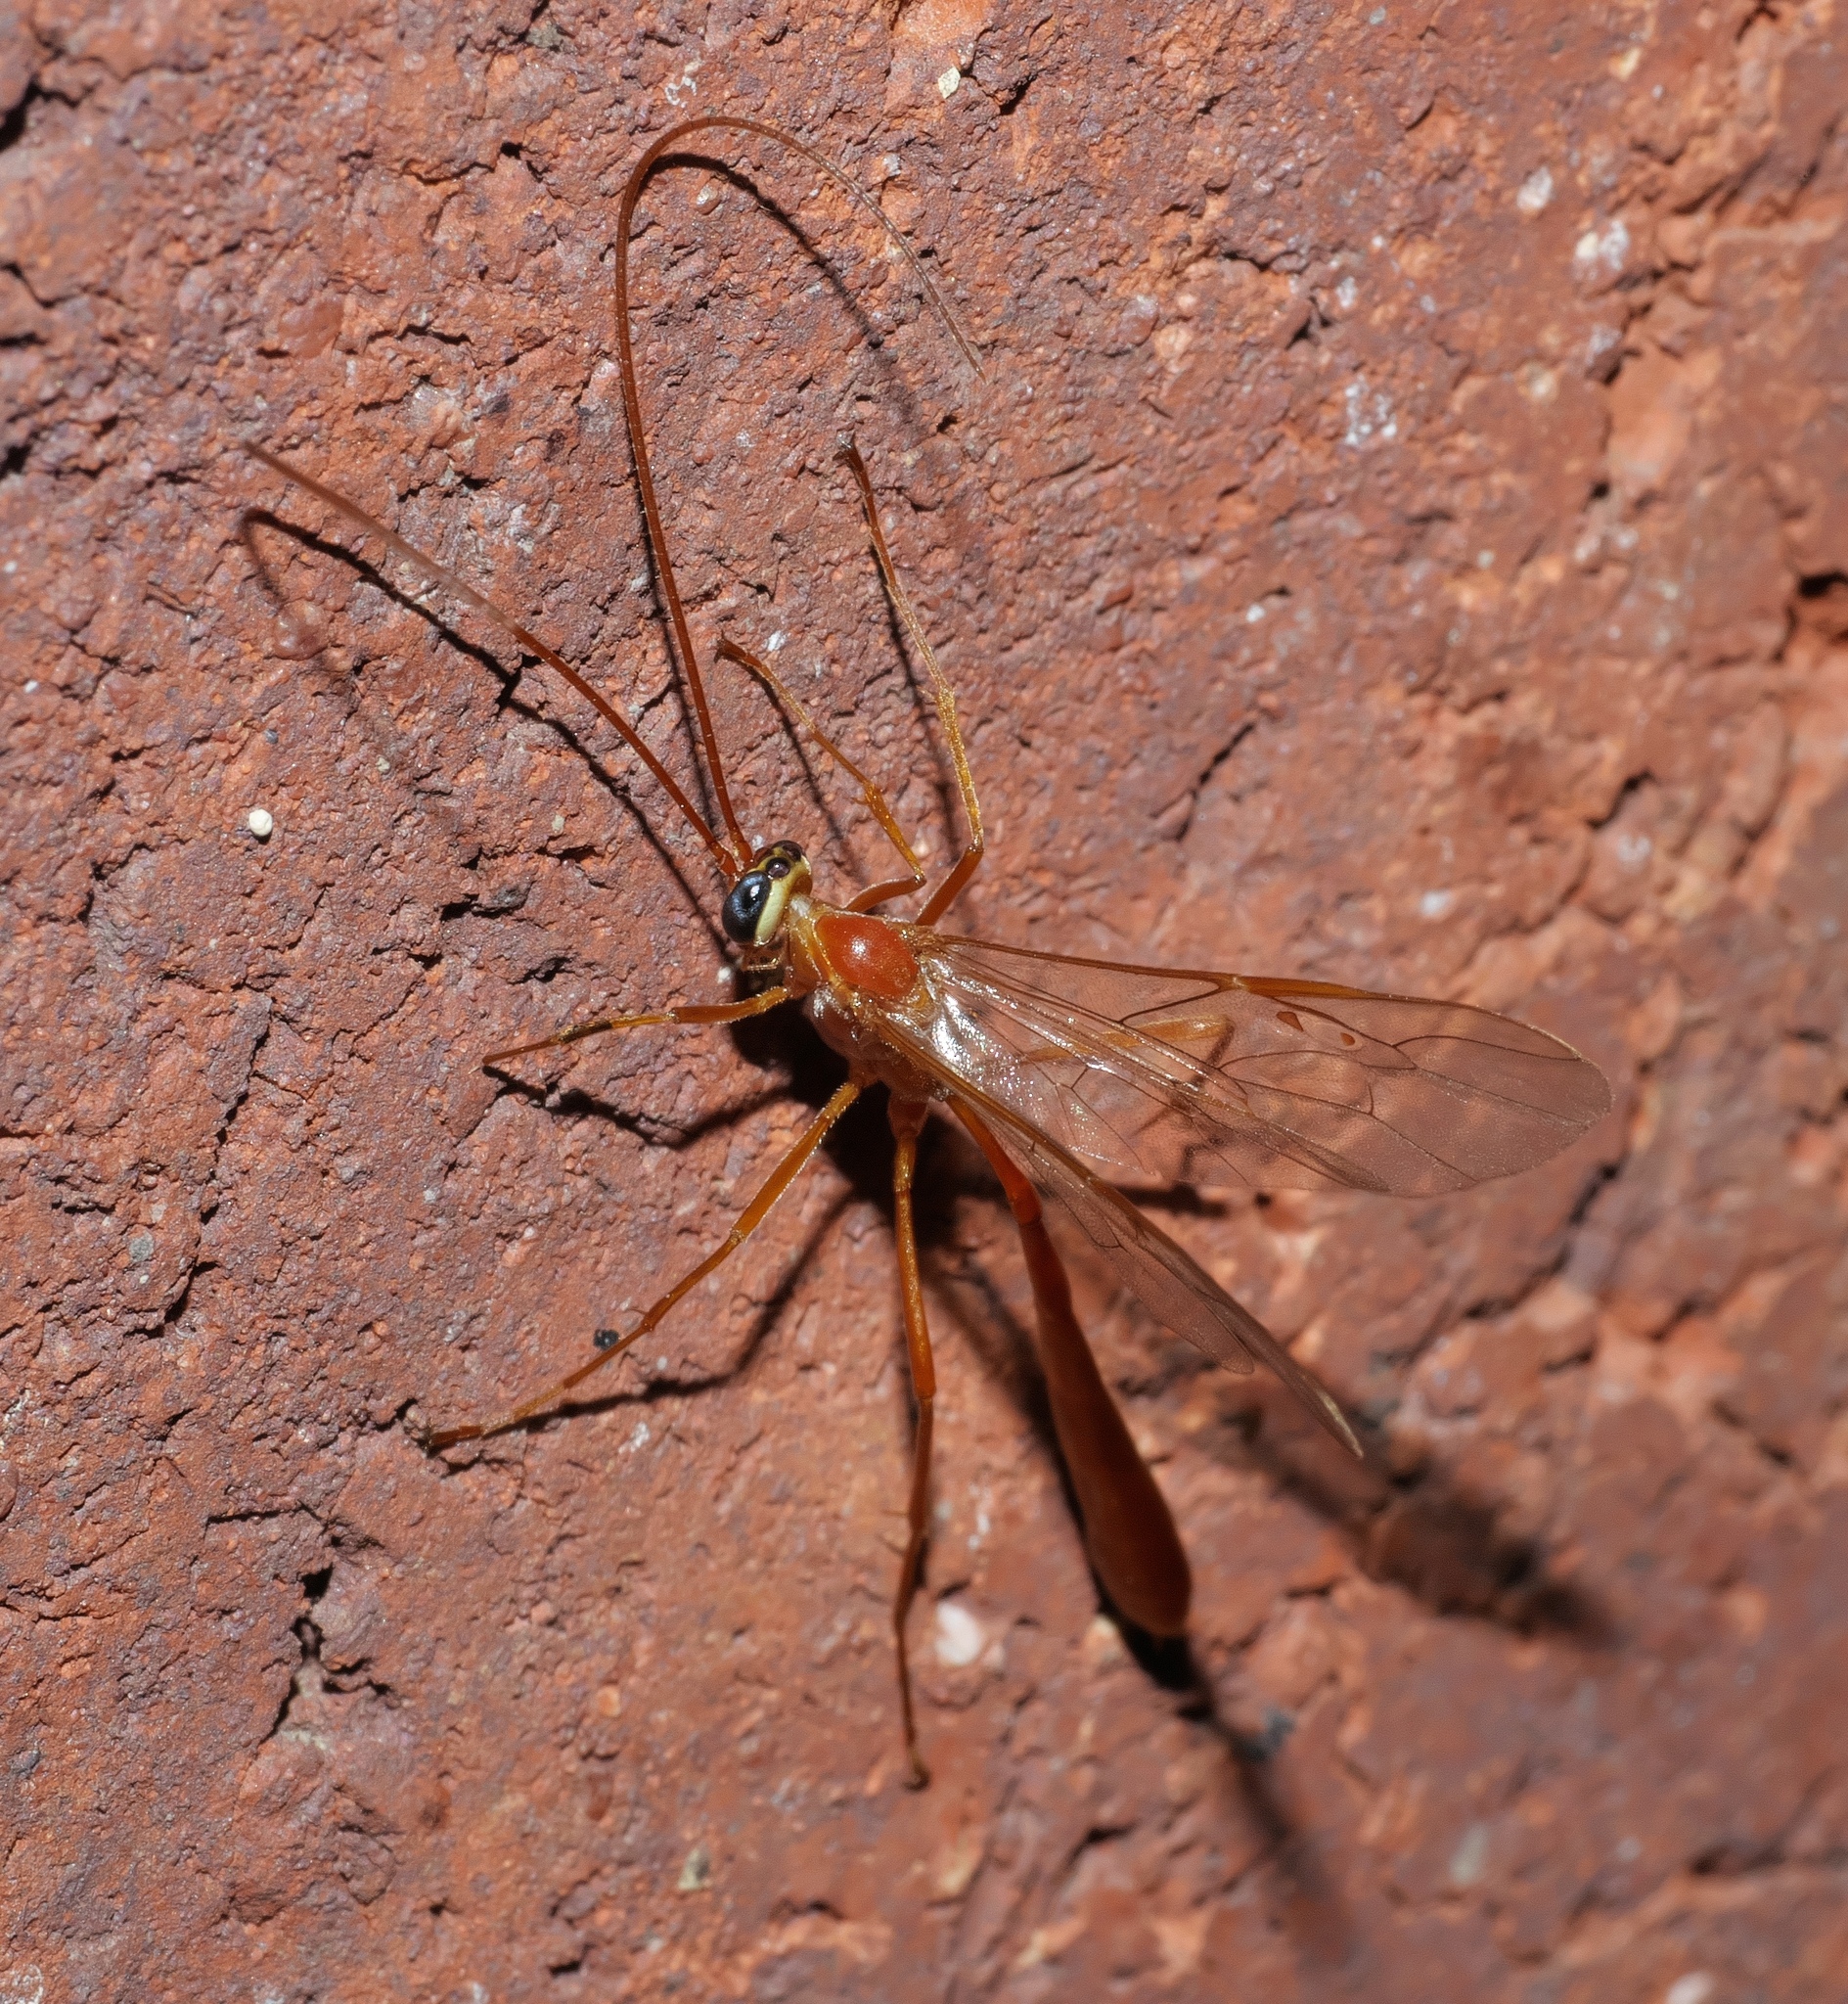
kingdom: Animalia
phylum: Arthropoda
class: Insecta
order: Hymenoptera
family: Ichneumonidae
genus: Enicospilus
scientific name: Enicospilus purgatus
